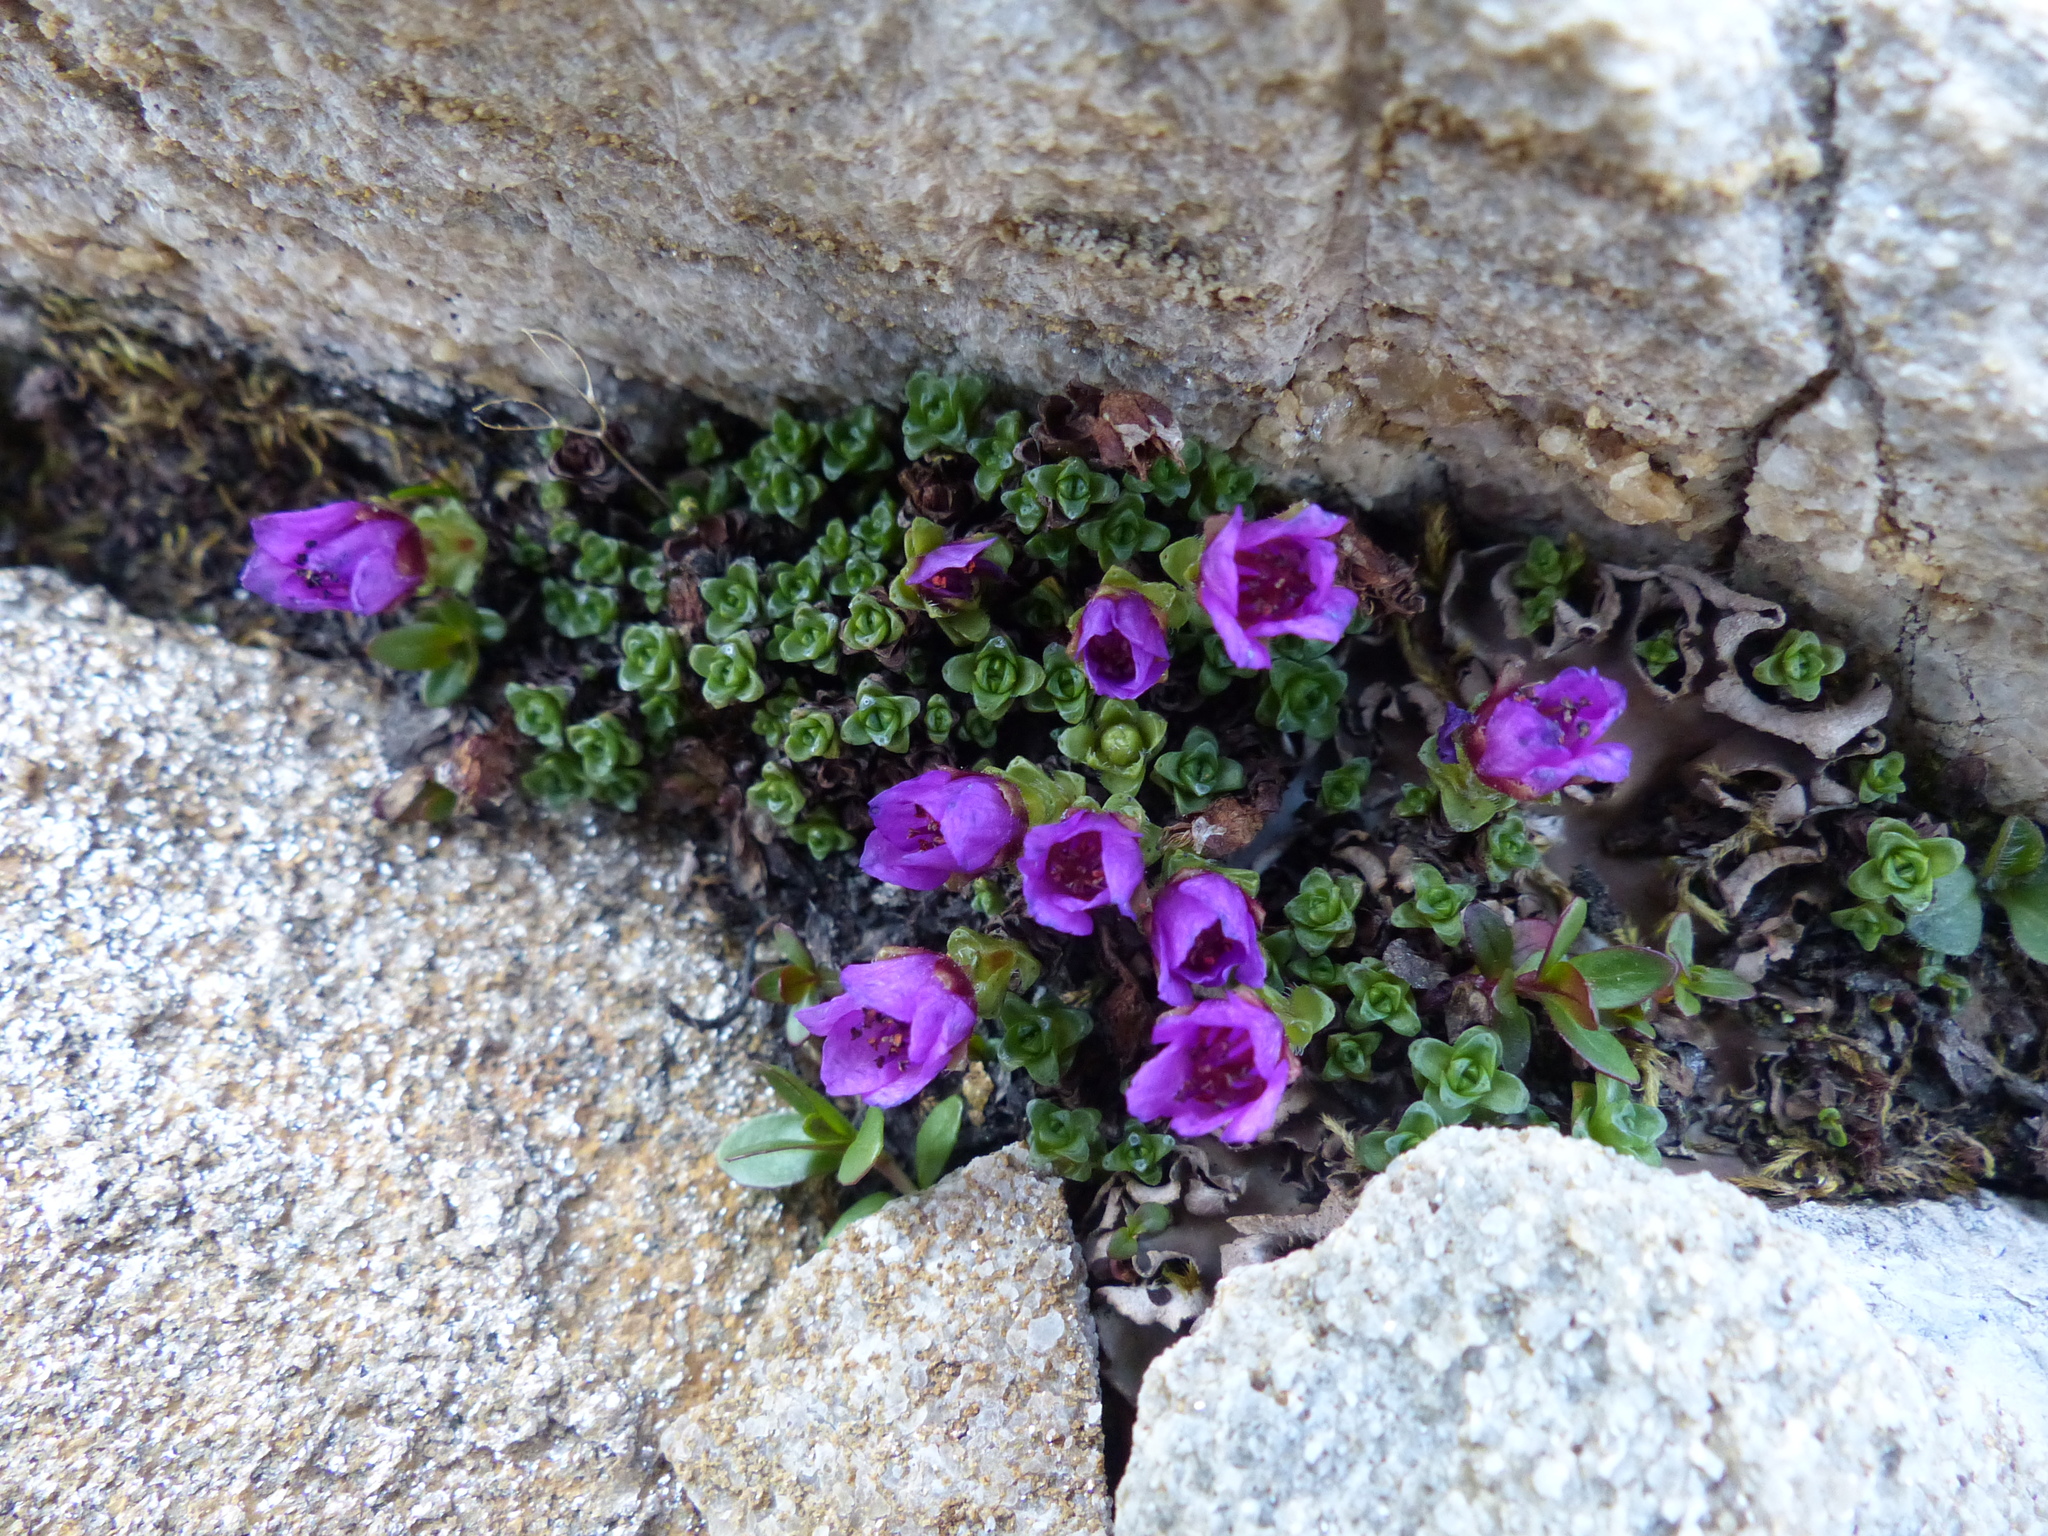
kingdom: Plantae
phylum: Tracheophyta
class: Magnoliopsida
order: Saxifragales
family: Saxifragaceae
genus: Saxifraga
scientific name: Saxifraga oppositifolia
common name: Purple saxifrage
